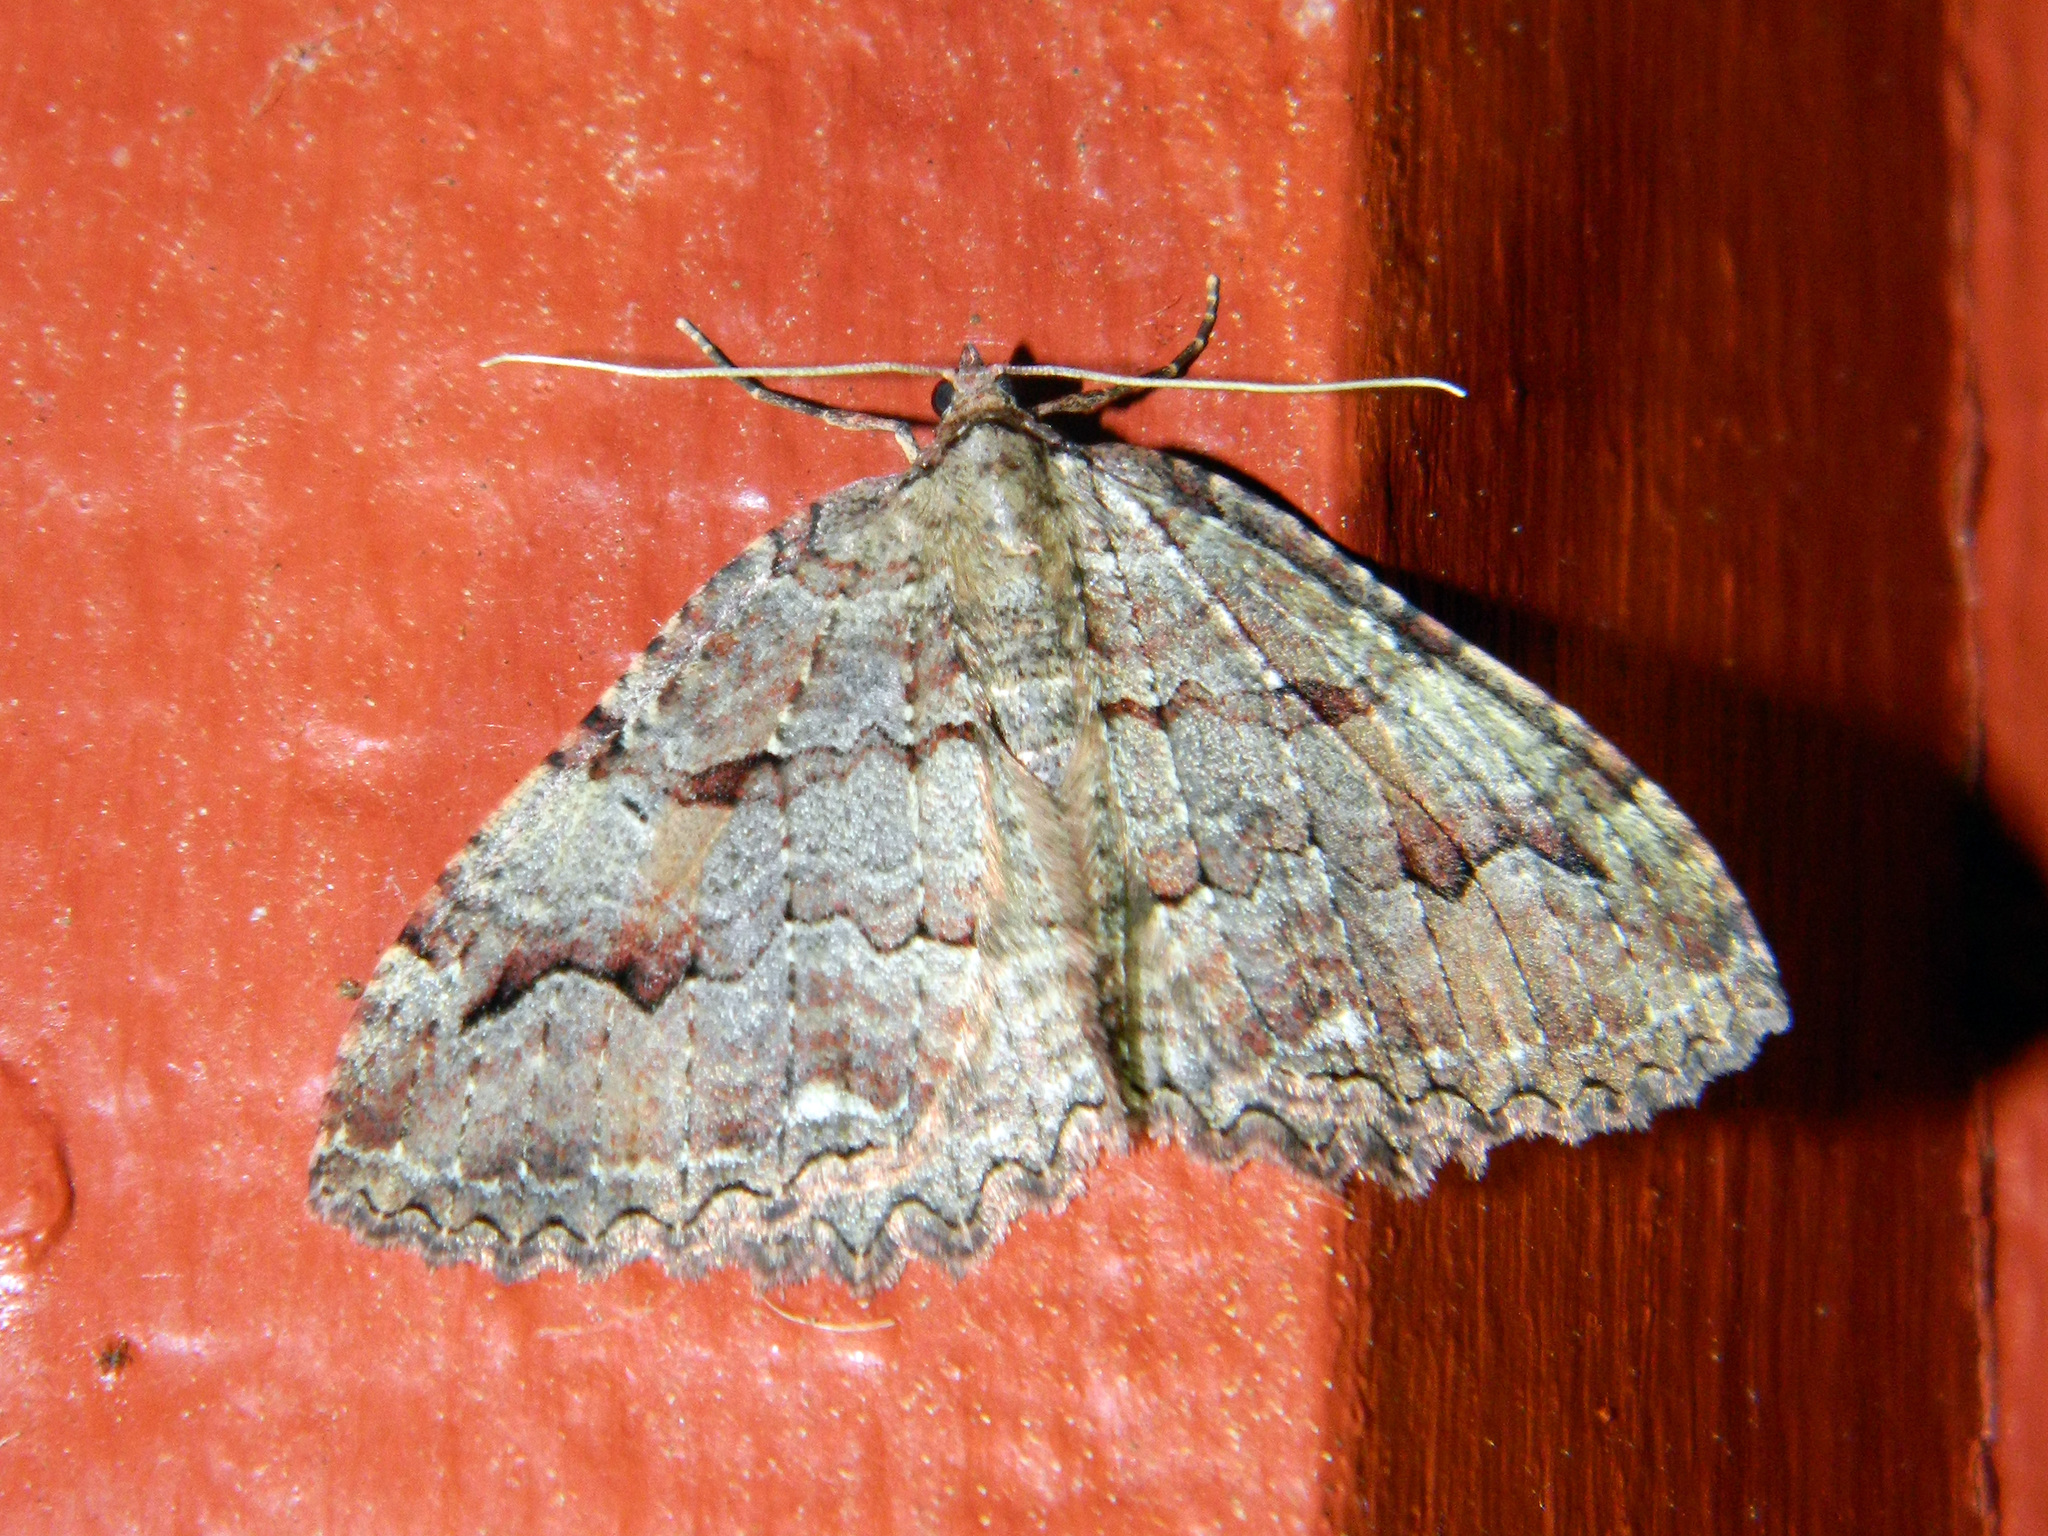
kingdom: Animalia
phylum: Arthropoda
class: Insecta
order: Lepidoptera
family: Geometridae
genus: Triphosa
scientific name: Triphosa haesitata
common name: Tissue moth
